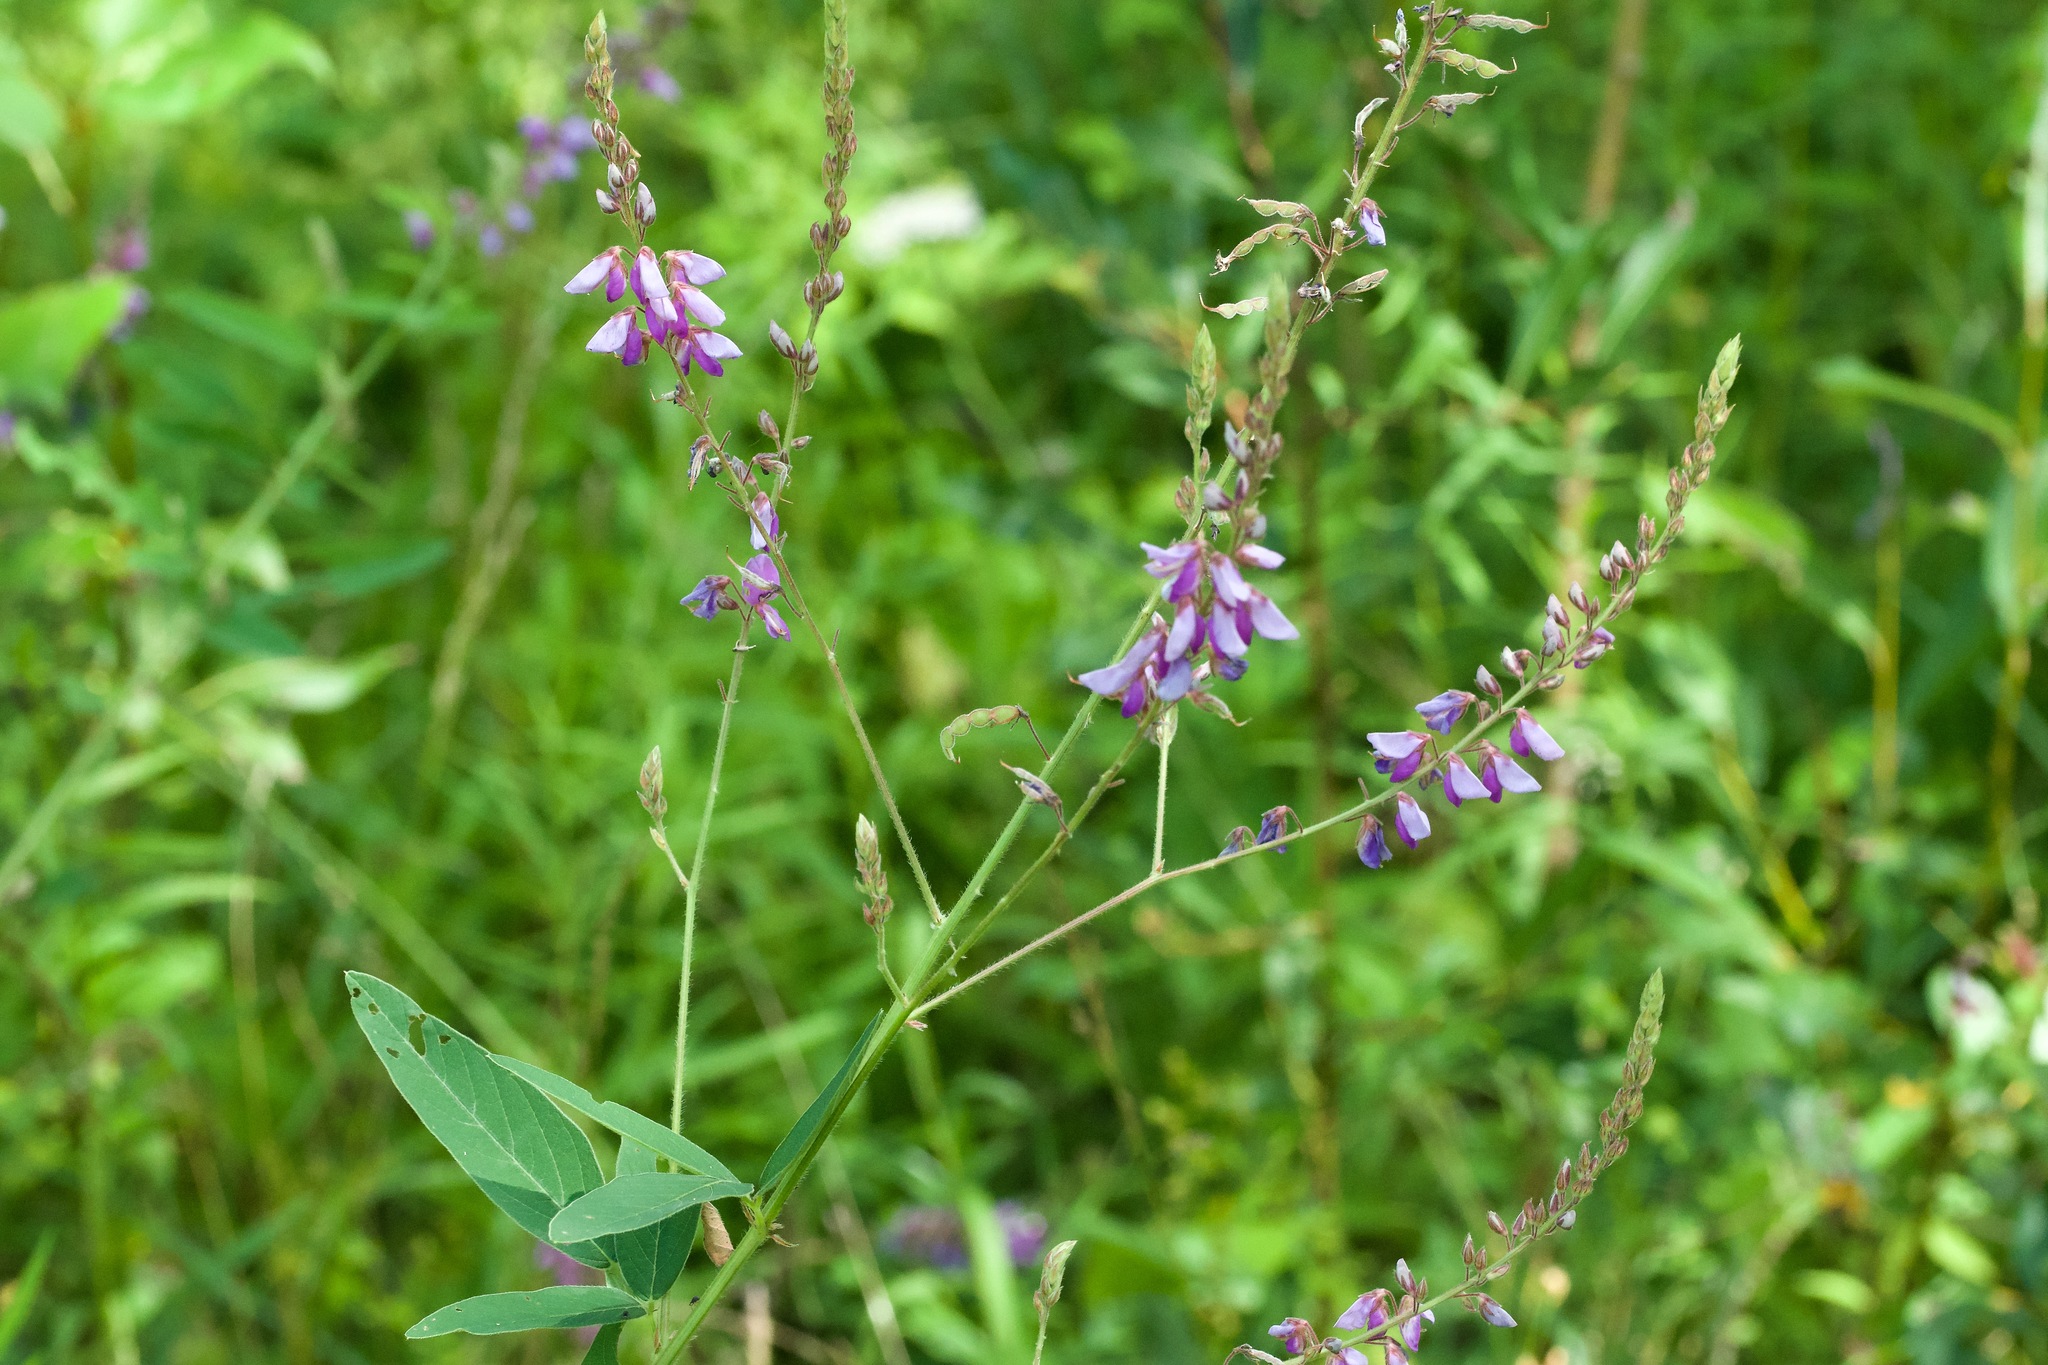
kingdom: Plantae
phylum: Tracheophyta
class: Magnoliopsida
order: Fabales
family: Fabaceae
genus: Desmodium
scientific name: Desmodium canadense
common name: Canada tick-trefoil
